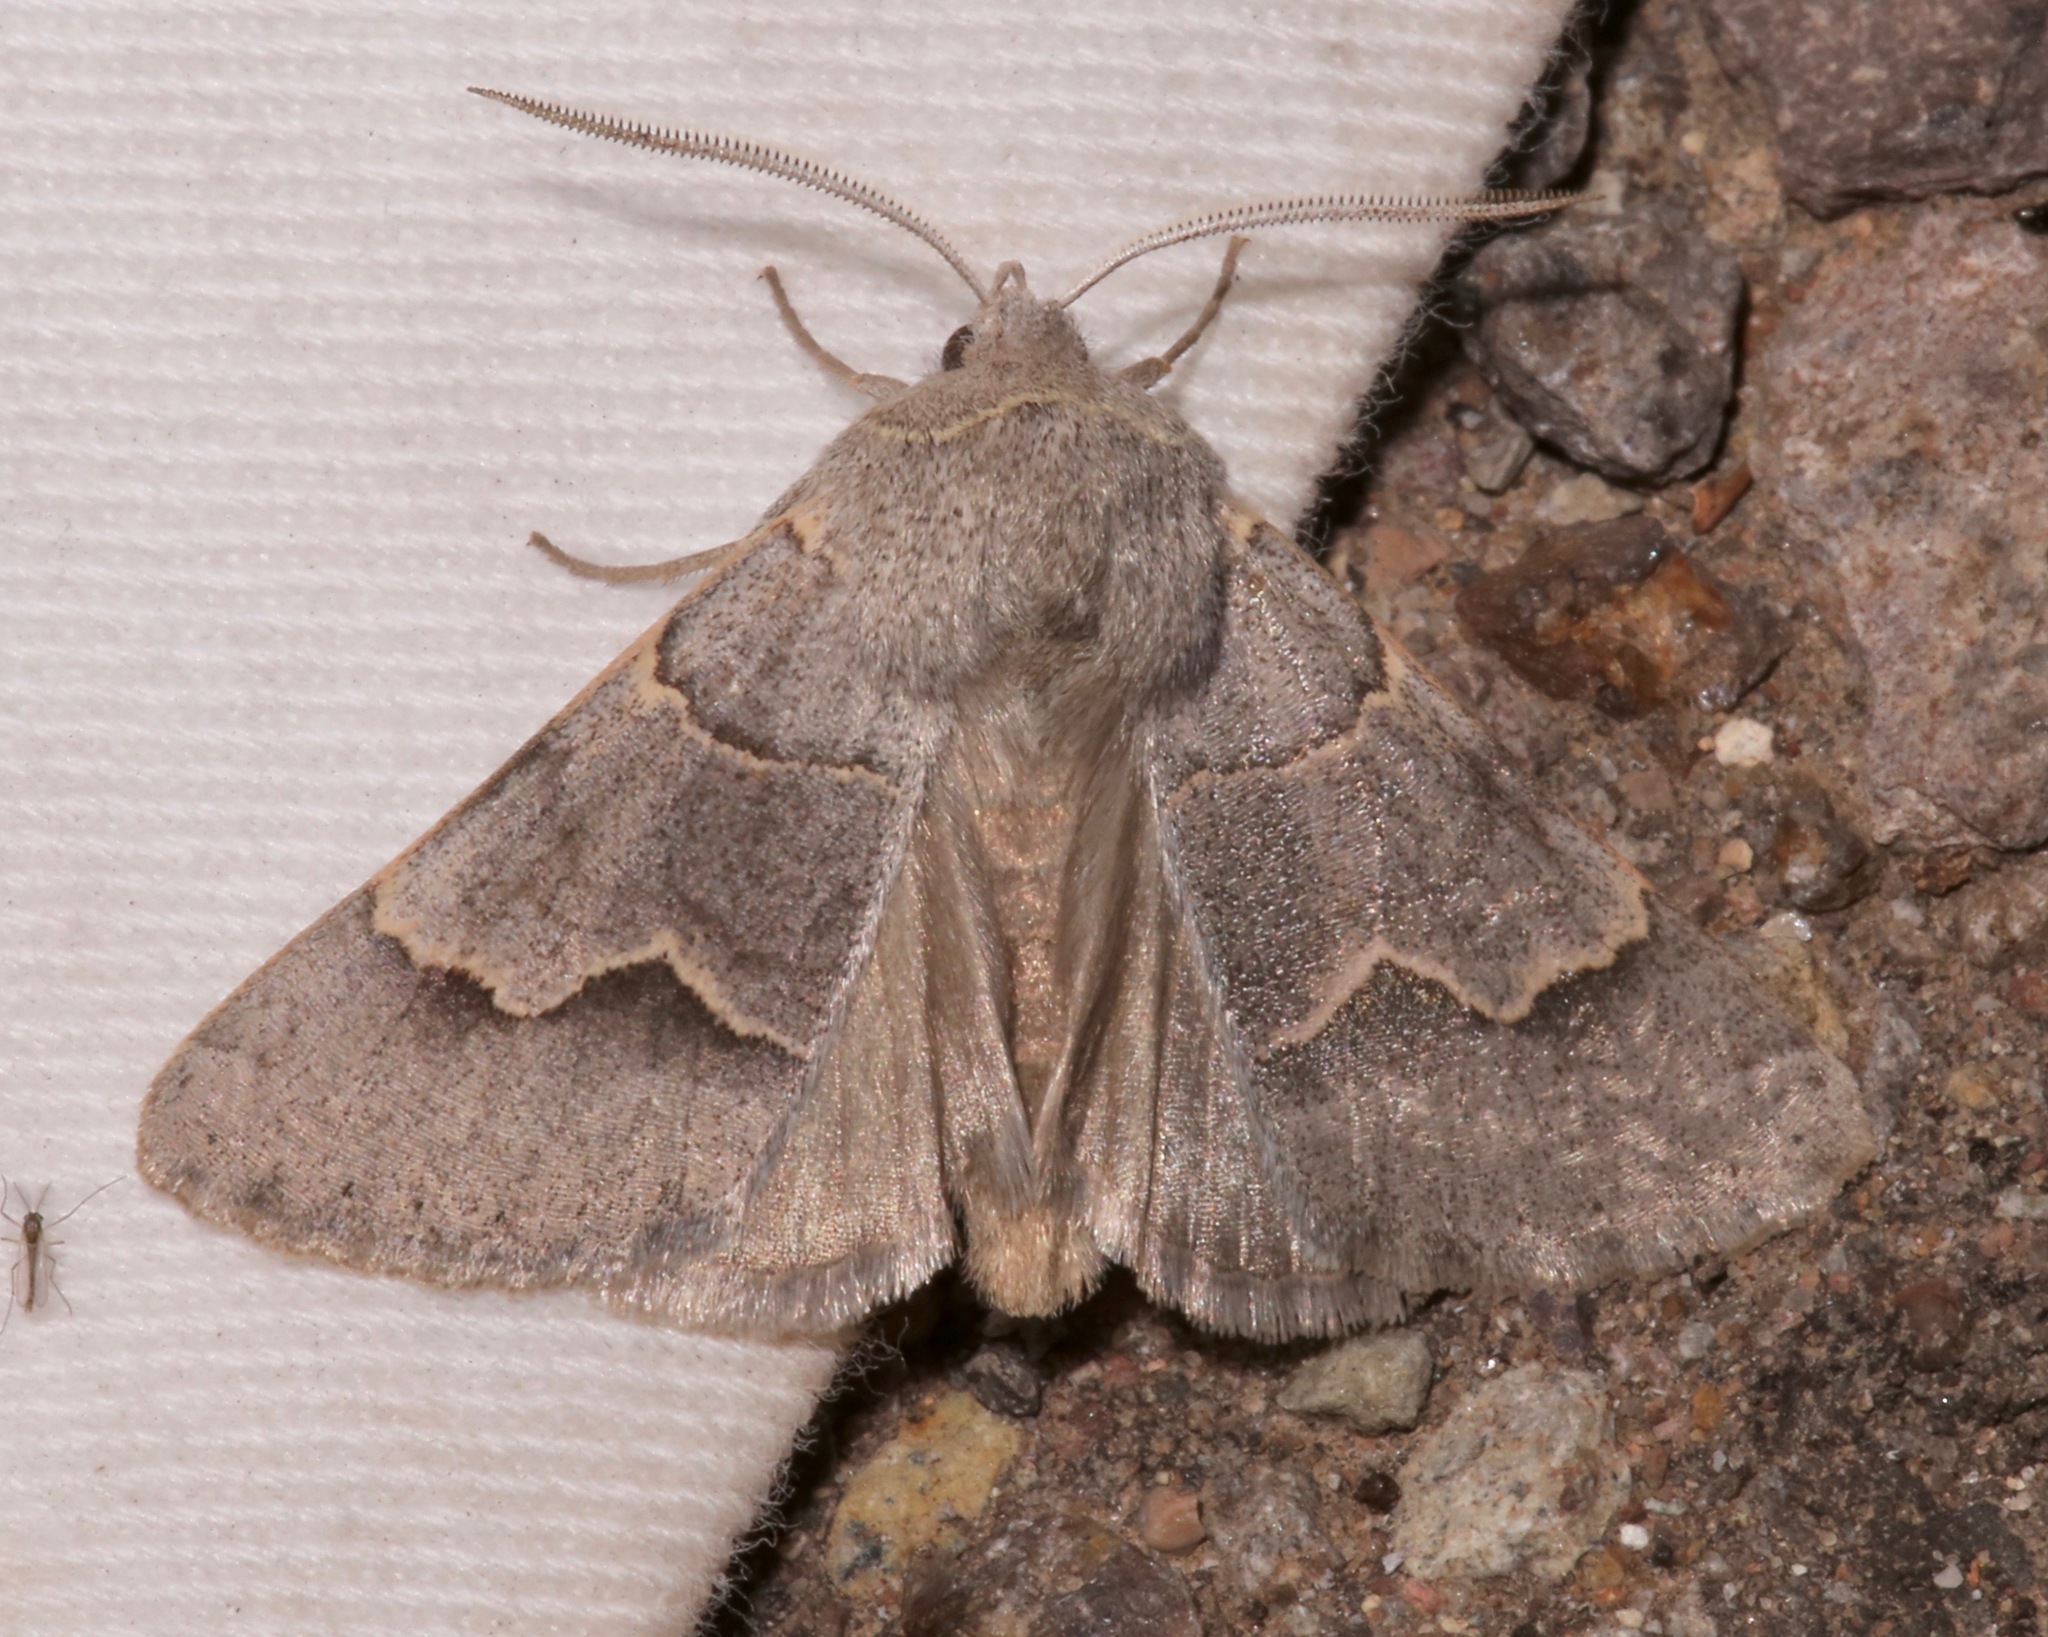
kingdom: Animalia
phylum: Arthropoda
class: Insecta
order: Lepidoptera
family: Erebidae
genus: Ulosyneda
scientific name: Ulosyneda valens
